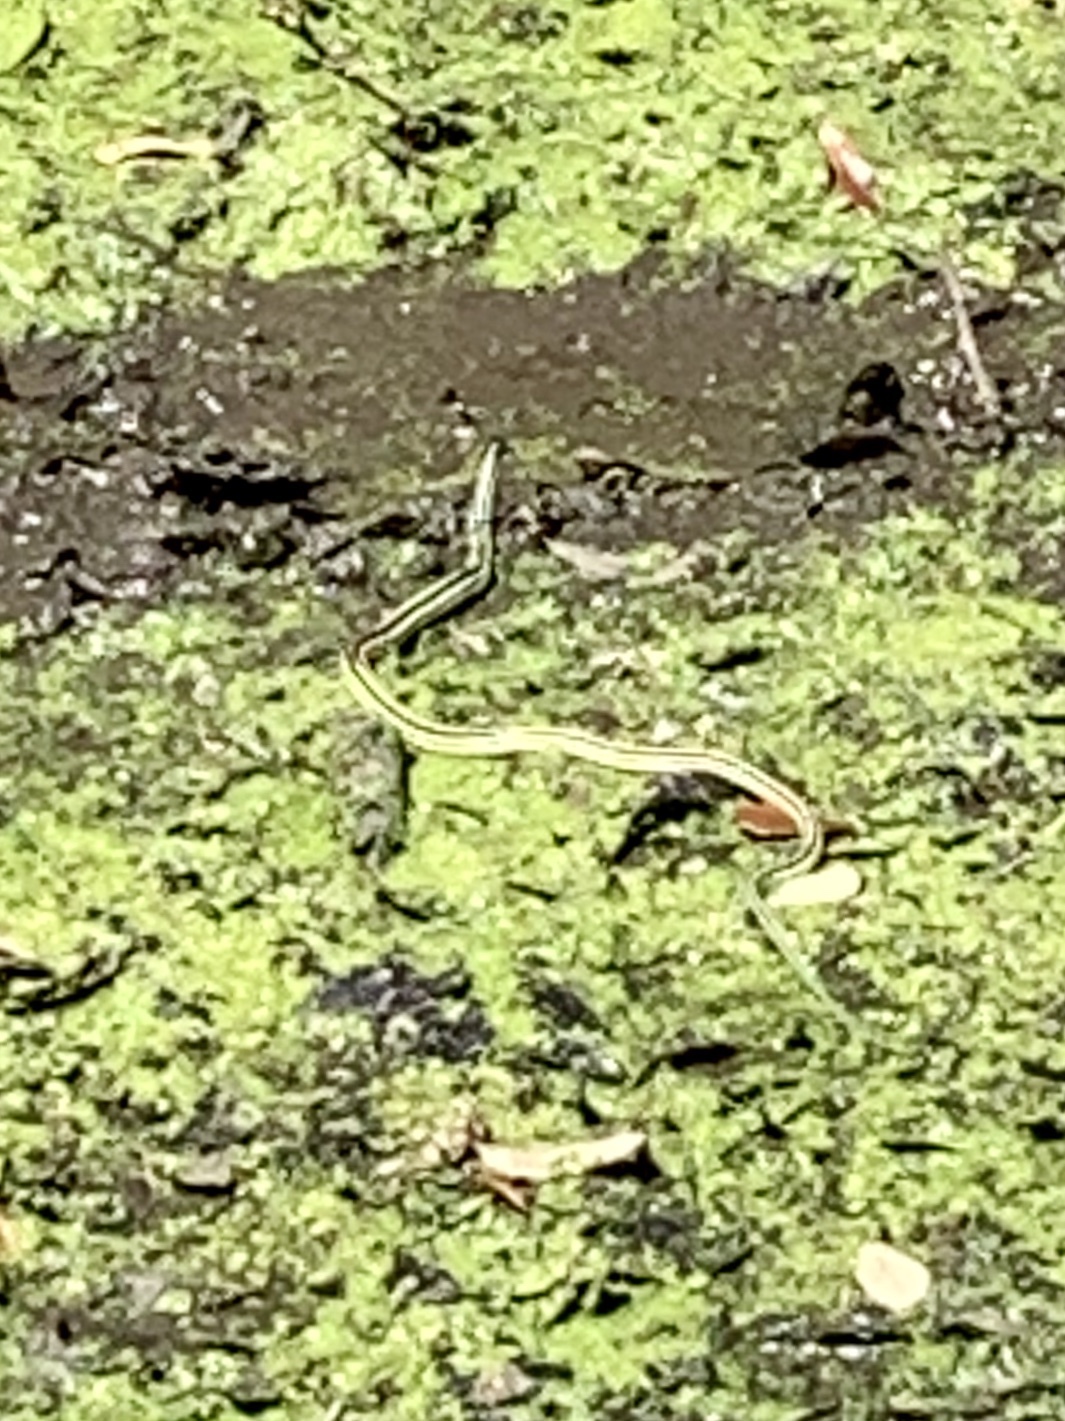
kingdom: Animalia
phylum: Chordata
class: Squamata
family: Colubridae
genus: Thamnophis
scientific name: Thamnophis proximus
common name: Western ribbon snake
